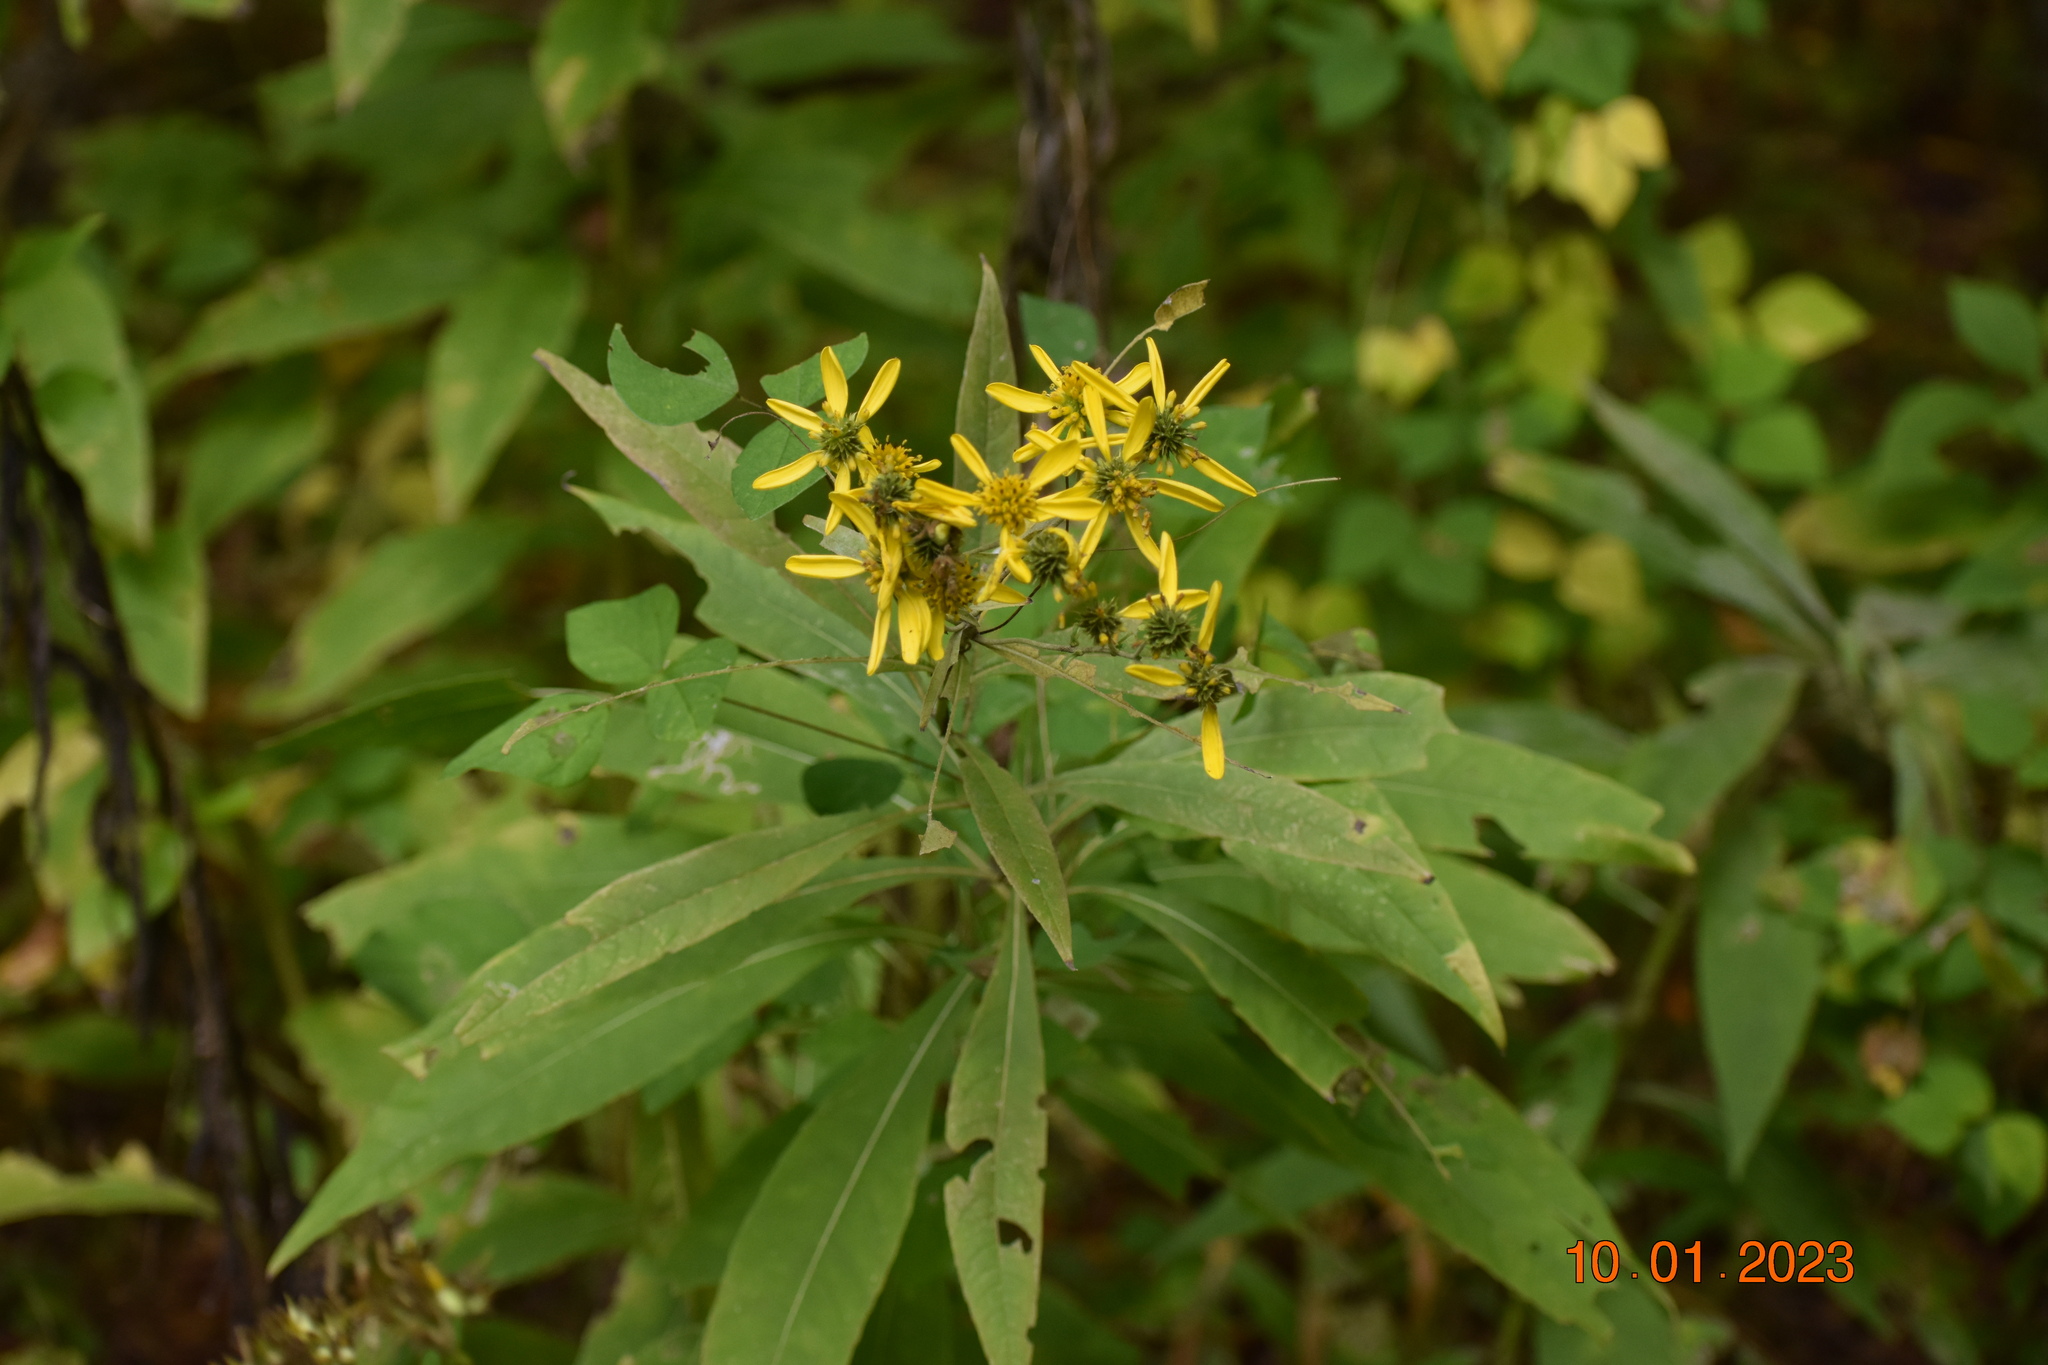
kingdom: Plantae
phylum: Tracheophyta
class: Magnoliopsida
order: Asterales
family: Asteraceae
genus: Verbesina
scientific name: Verbesina alternifolia
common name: Wingstem
